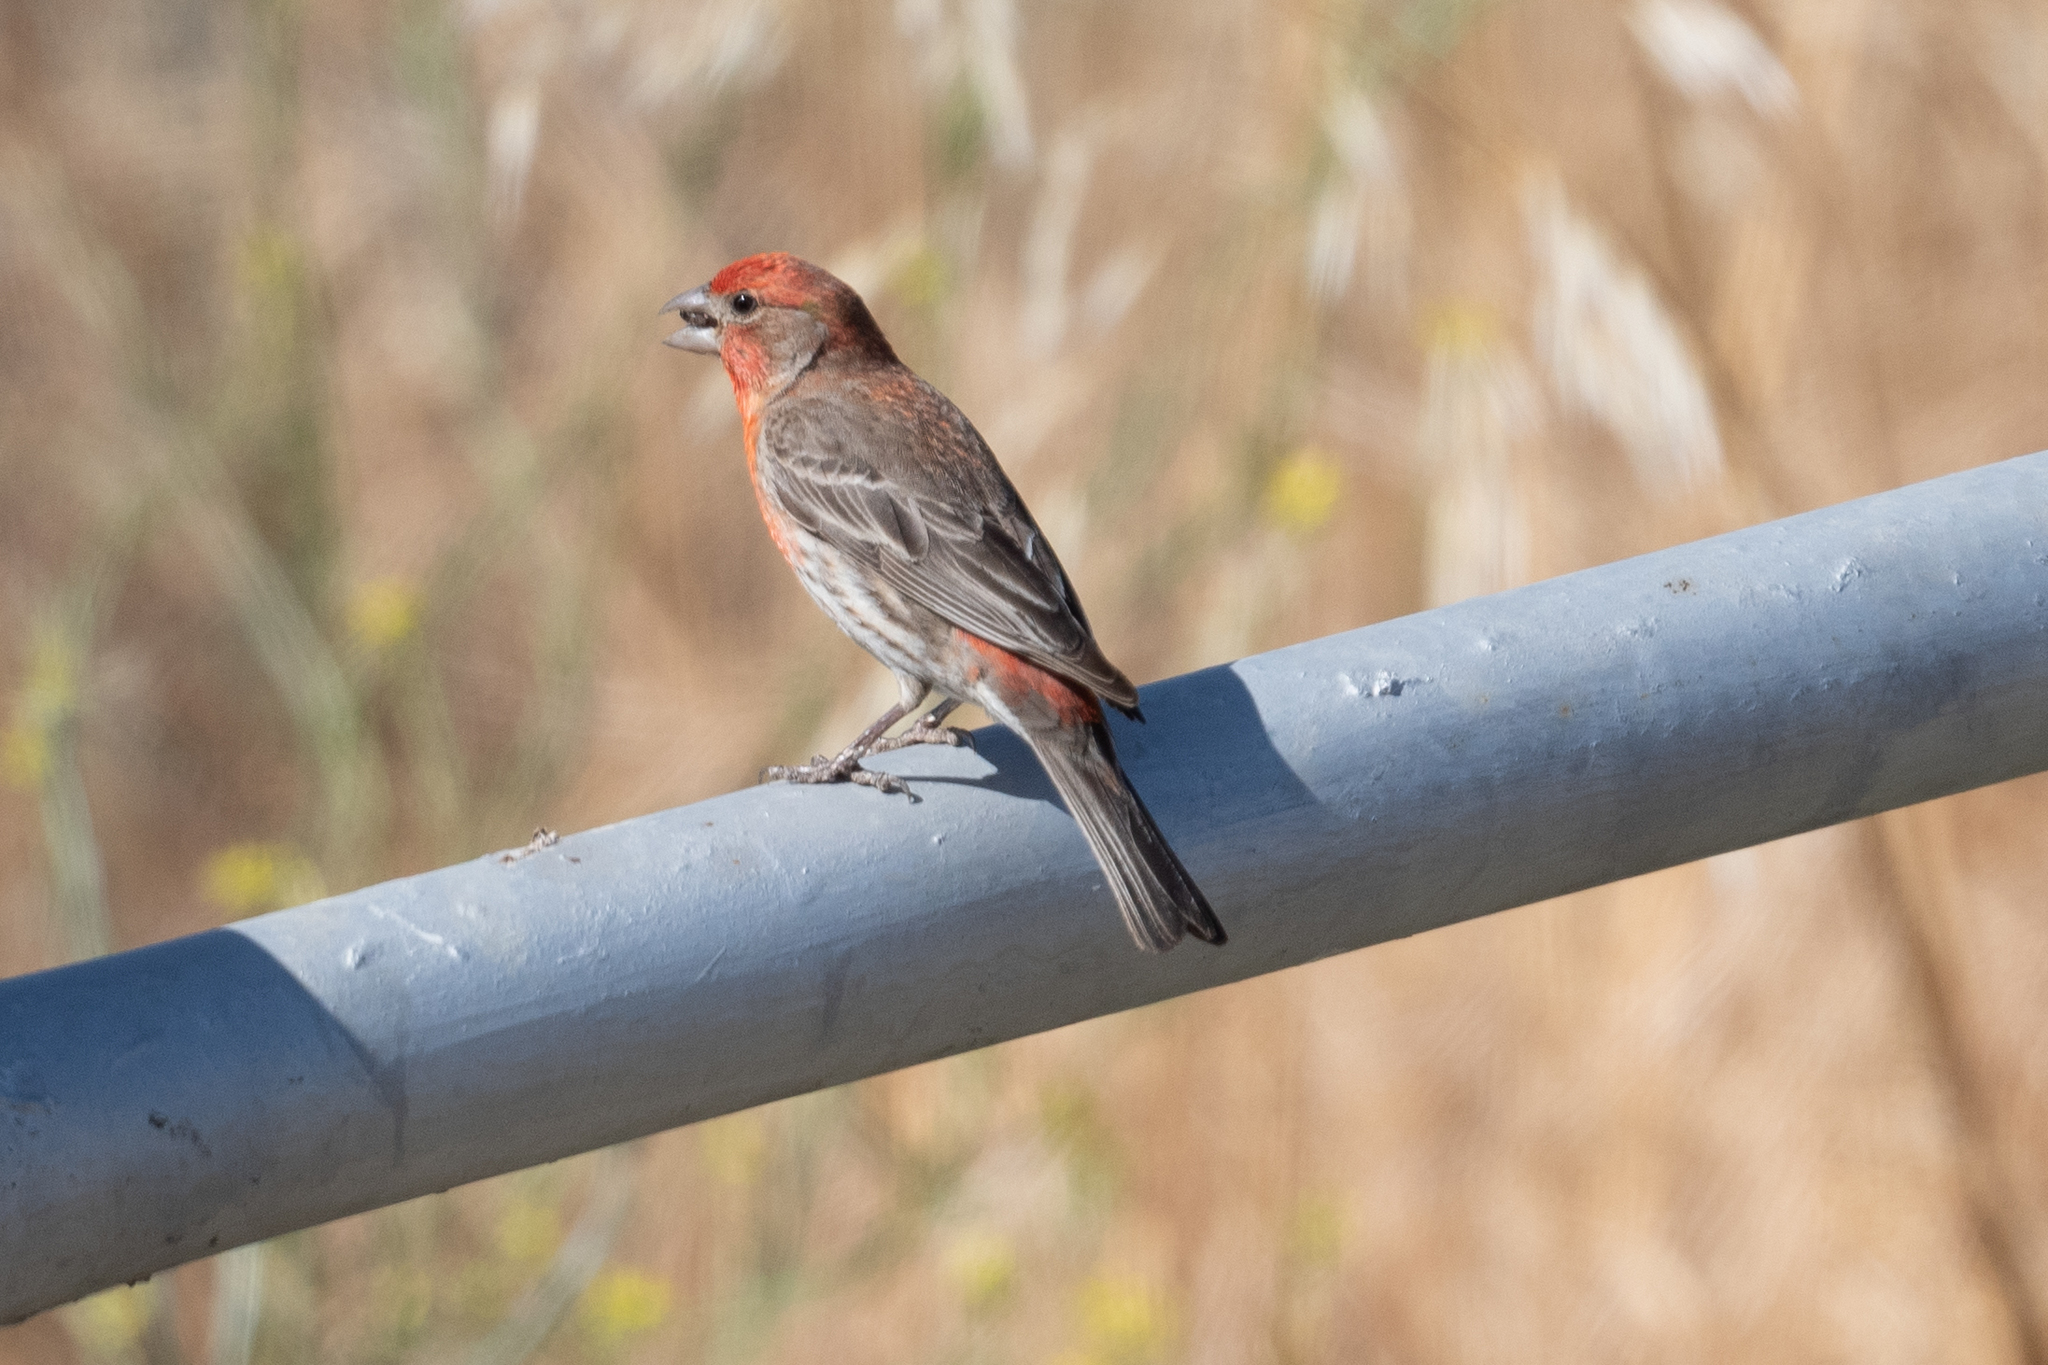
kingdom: Animalia
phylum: Chordata
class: Aves
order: Passeriformes
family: Fringillidae
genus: Haemorhous
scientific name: Haemorhous mexicanus
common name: House finch
